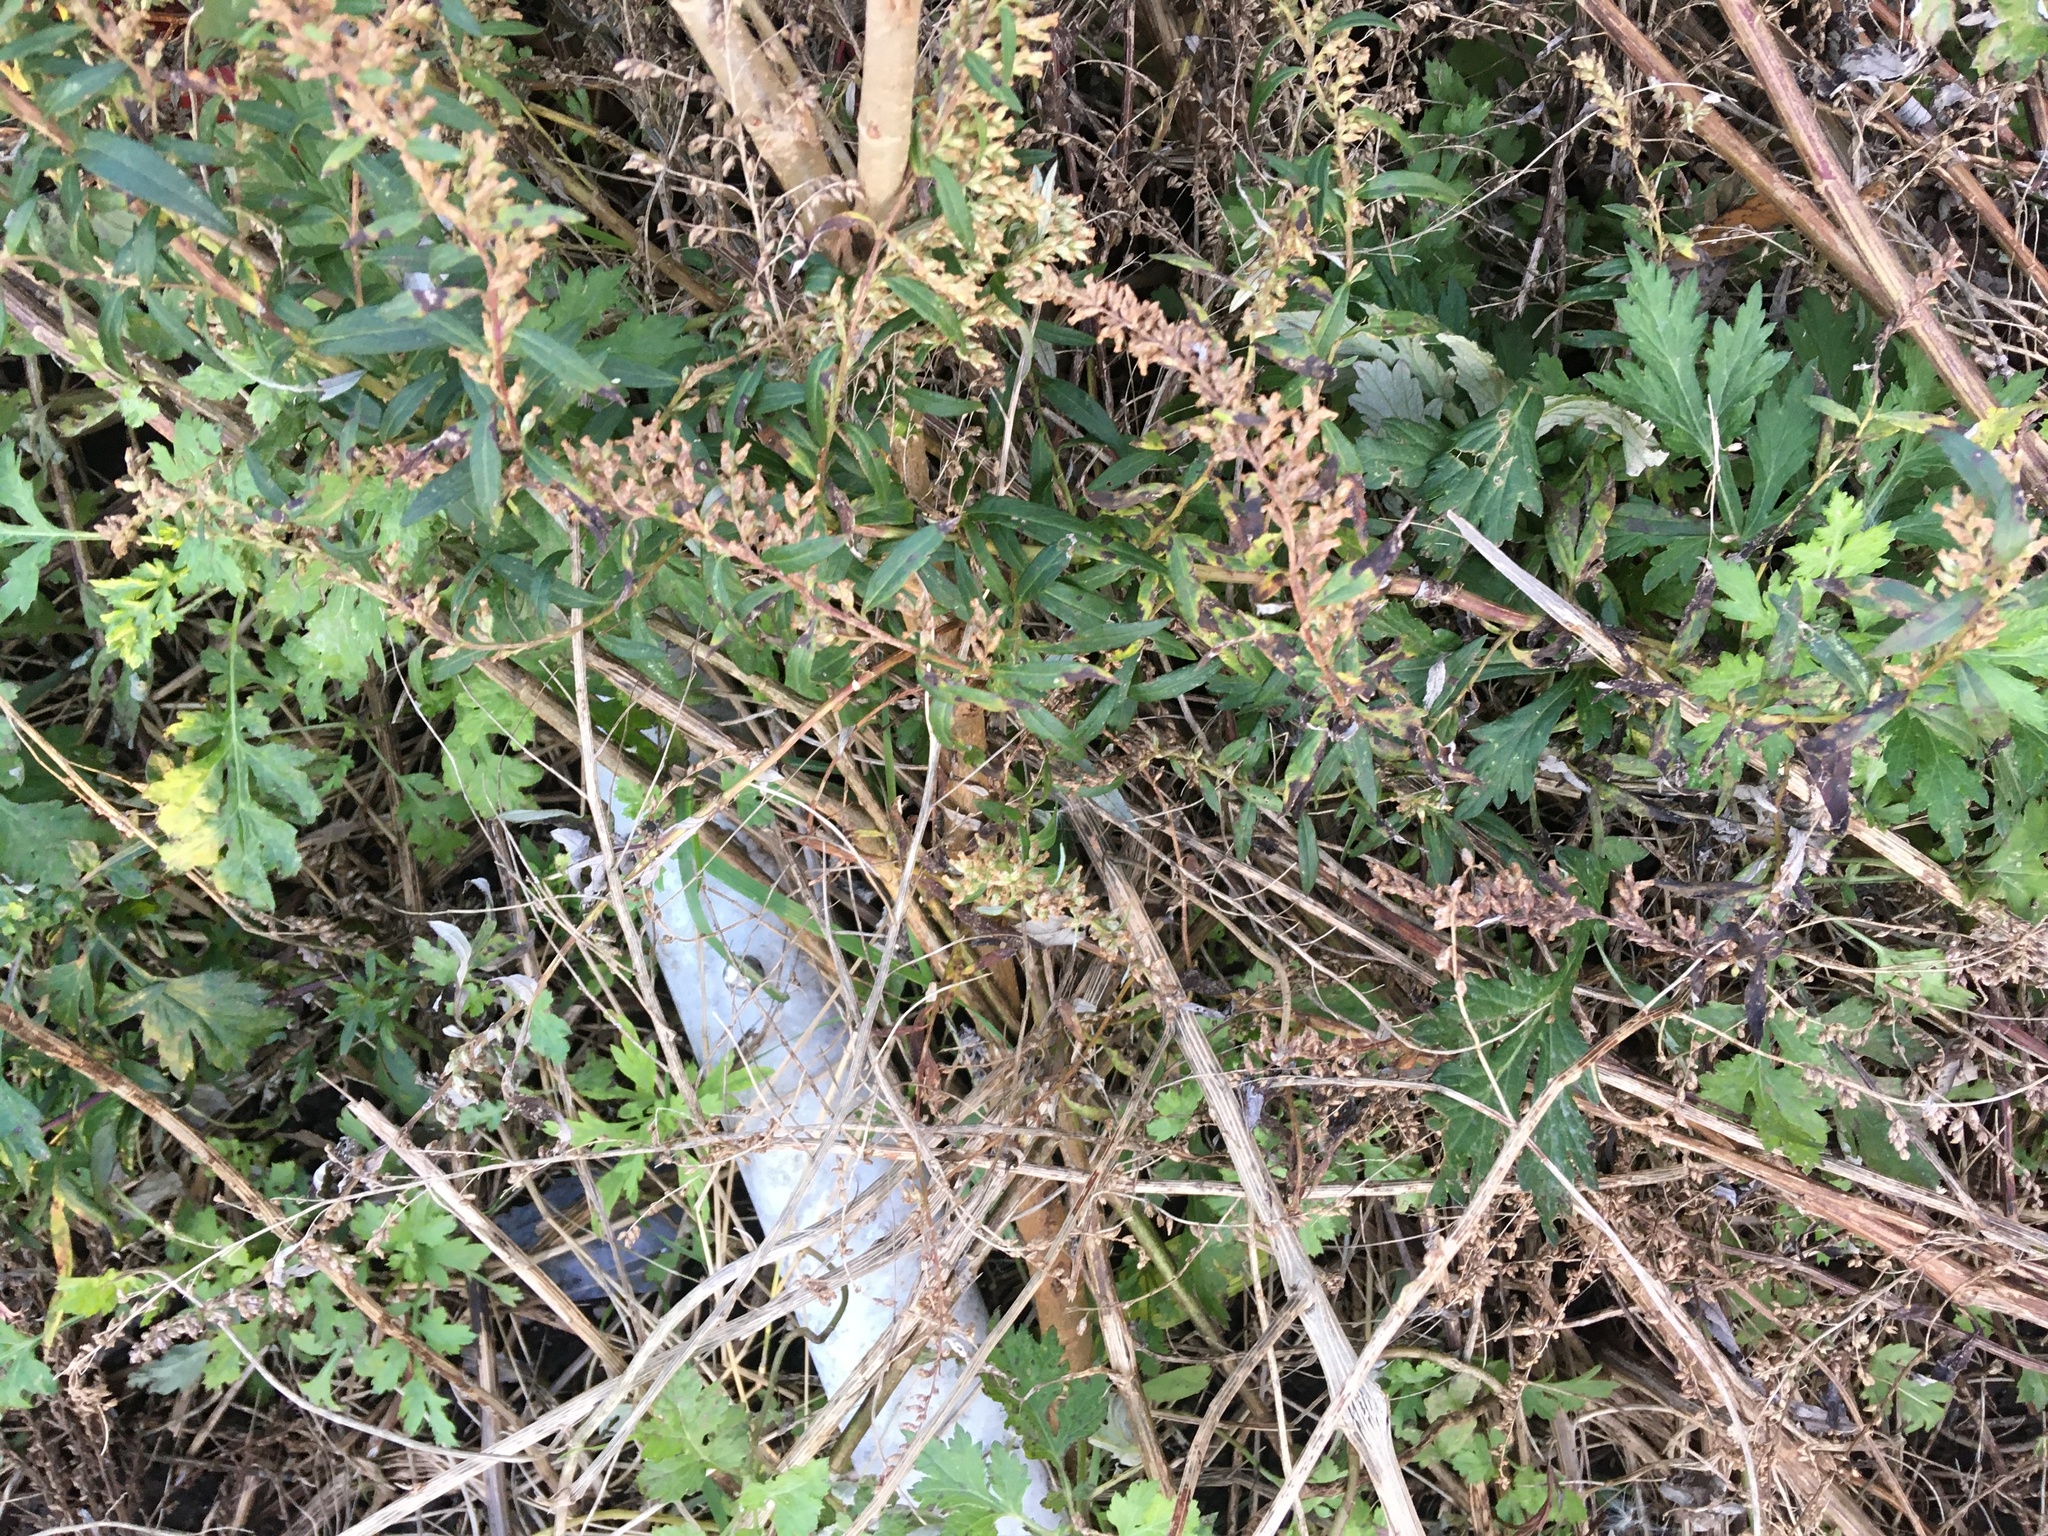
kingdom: Plantae
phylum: Tracheophyta
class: Magnoliopsida
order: Asterales
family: Asteraceae
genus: Artemisia
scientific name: Artemisia vulgaris
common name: Mugwort
